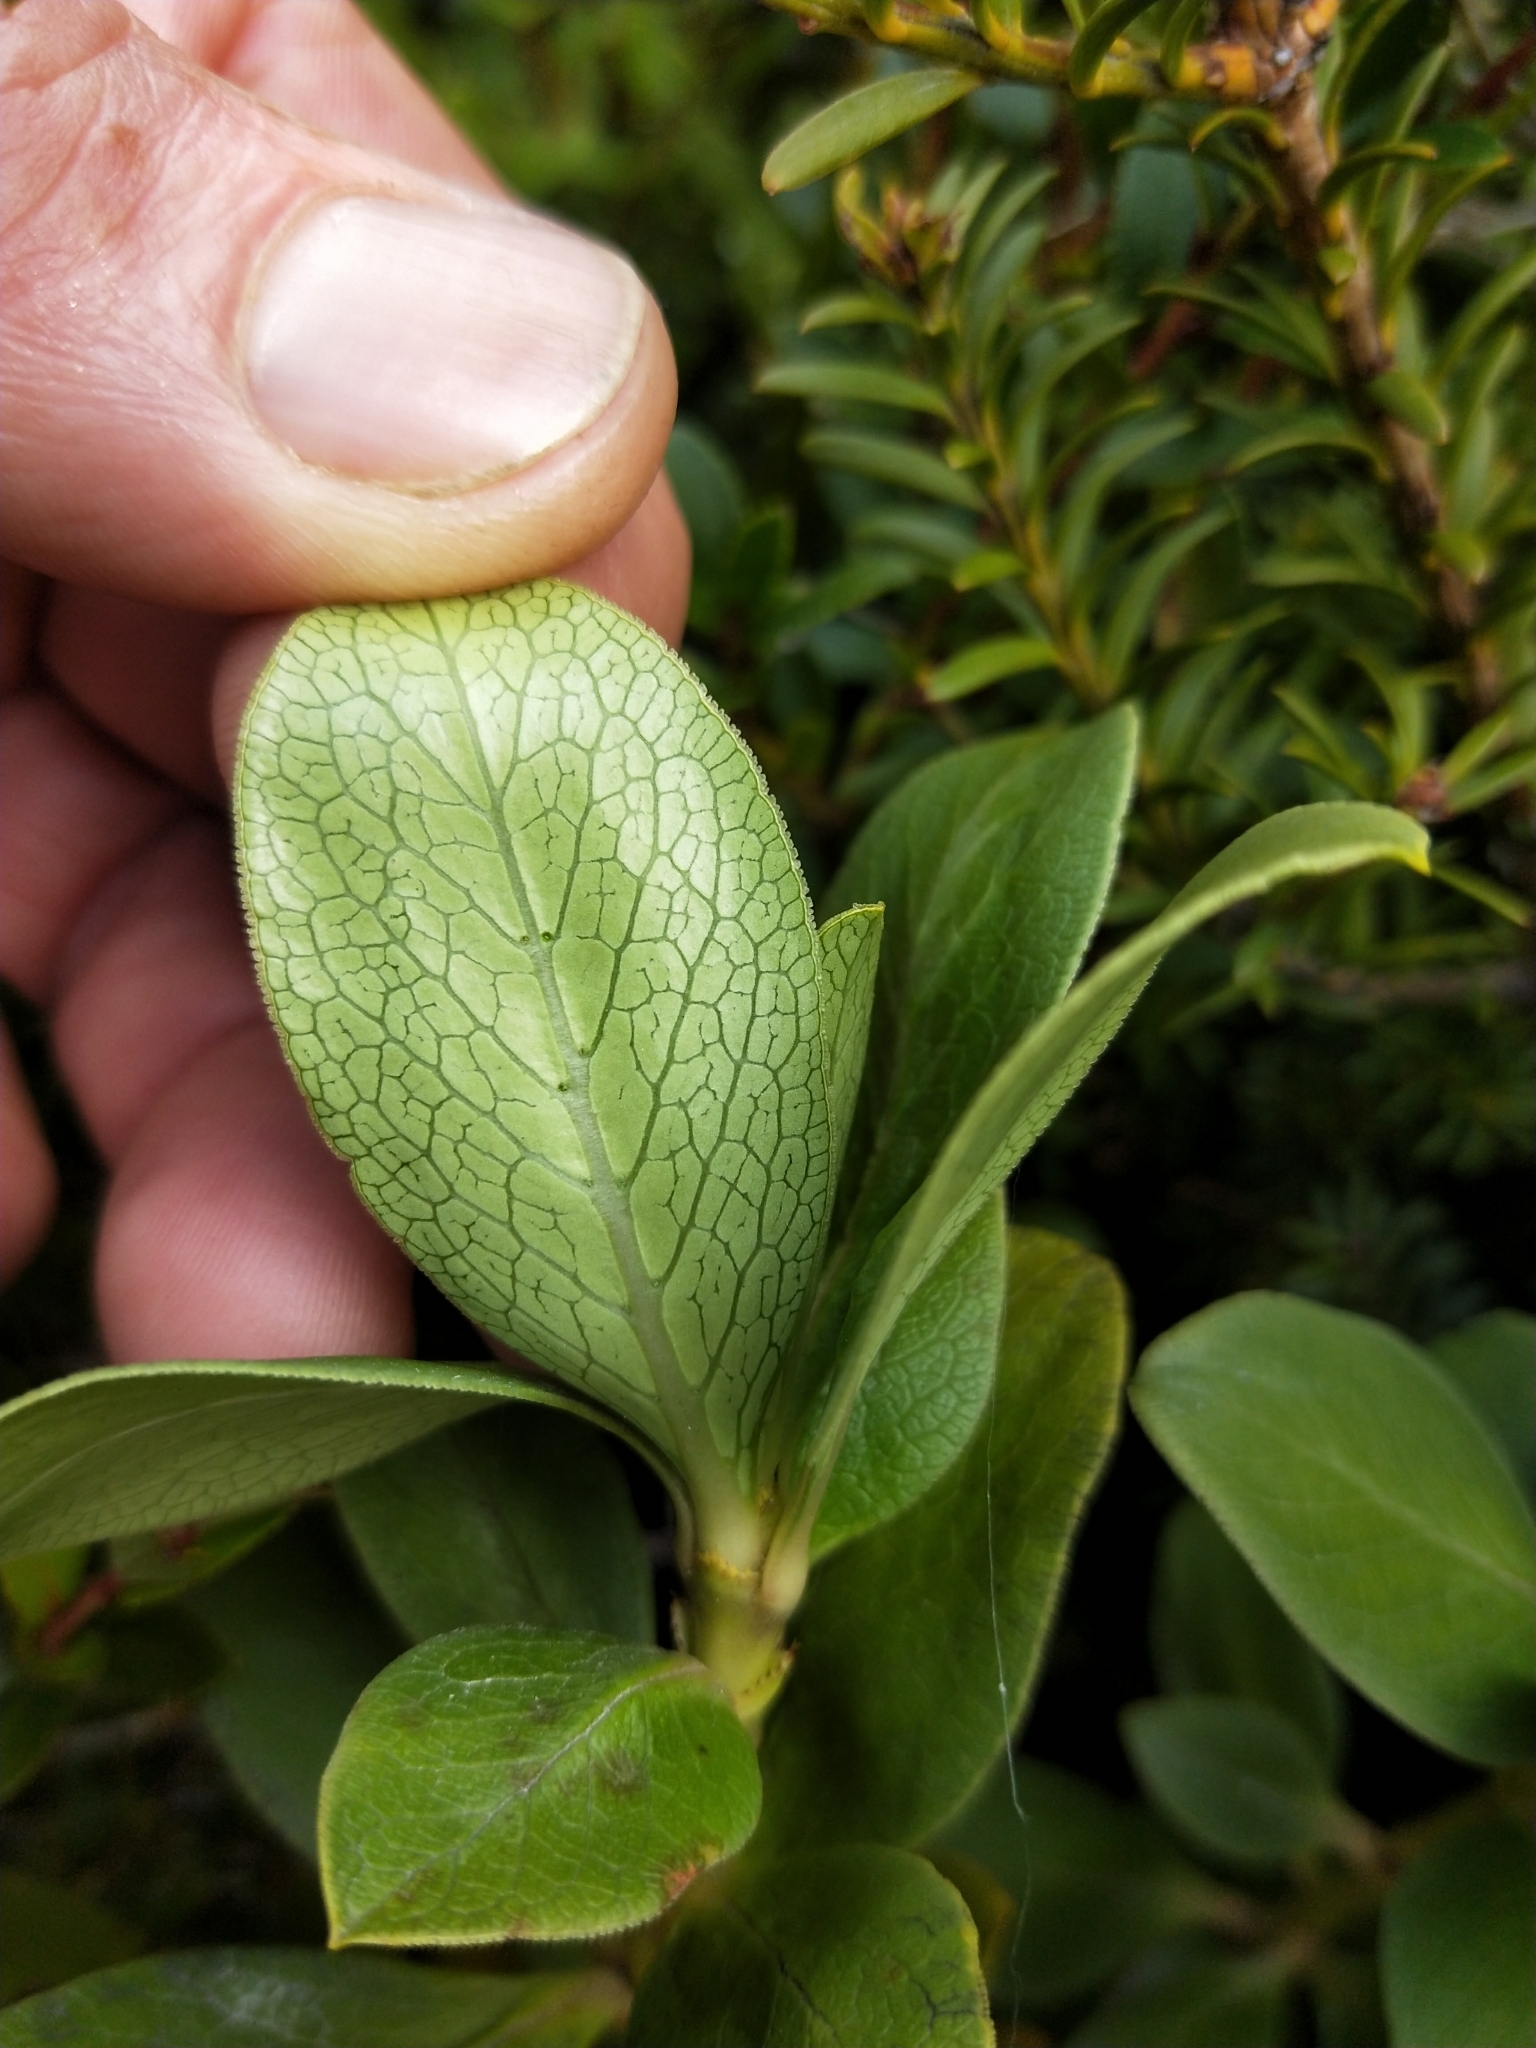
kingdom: Plantae
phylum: Tracheophyta
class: Magnoliopsida
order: Gentianales
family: Rubiaceae
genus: Coprosma
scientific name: Coprosma serrulata
